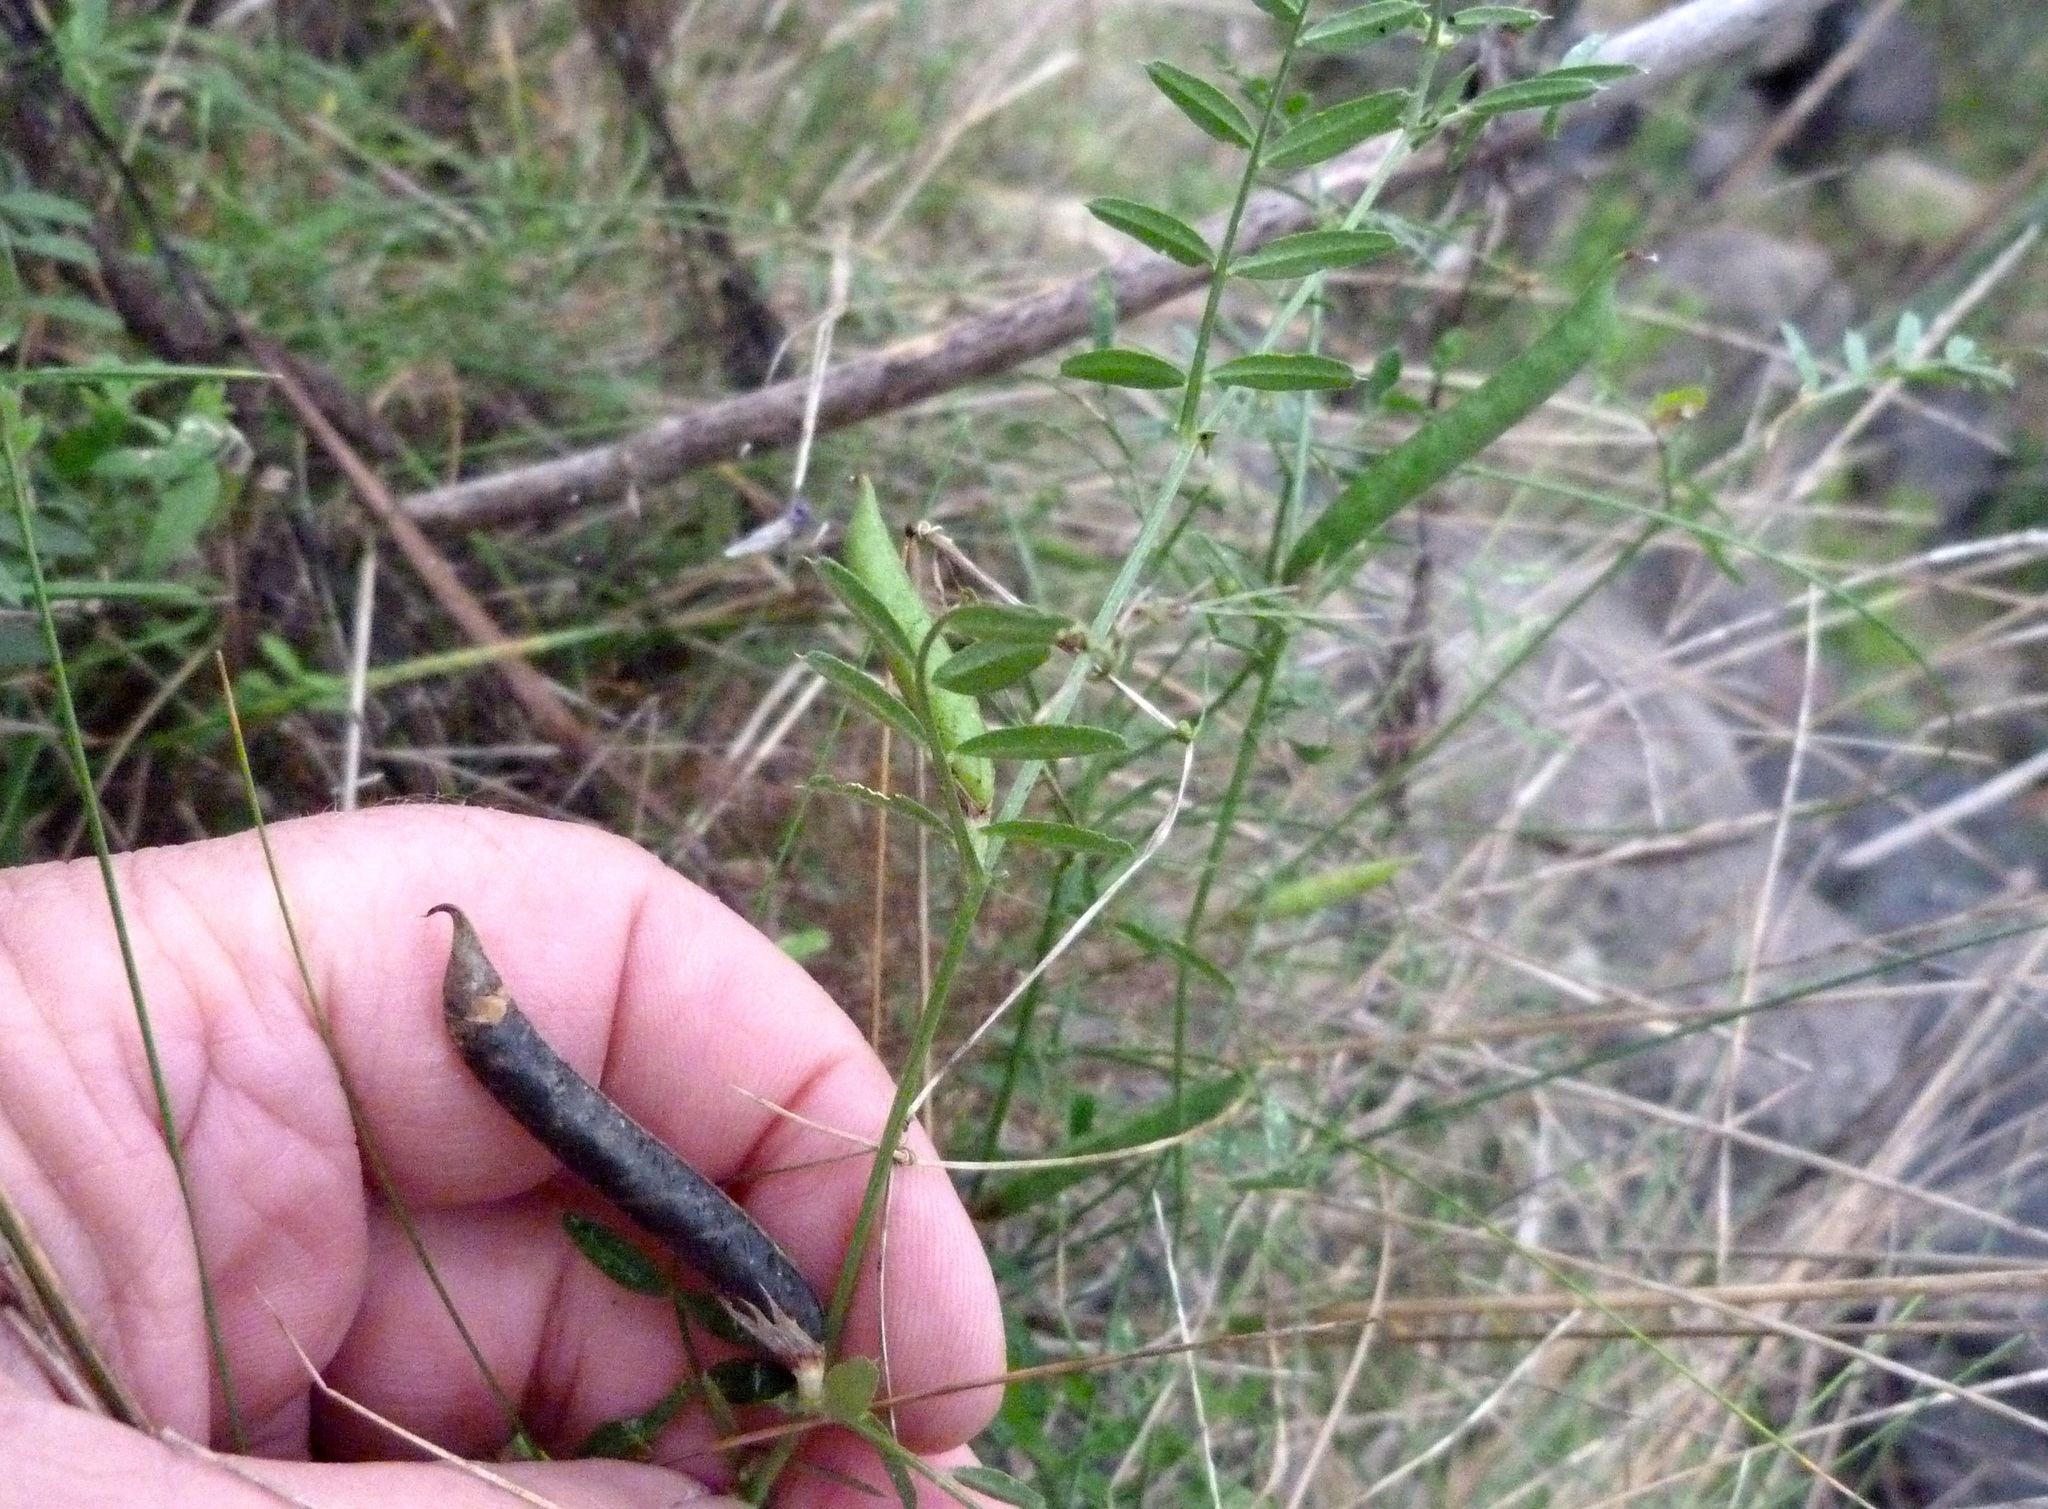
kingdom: Plantae
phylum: Tracheophyta
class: Magnoliopsida
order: Fabales
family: Fabaceae
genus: Vicia
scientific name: Vicia sativa
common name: Garden vetch
